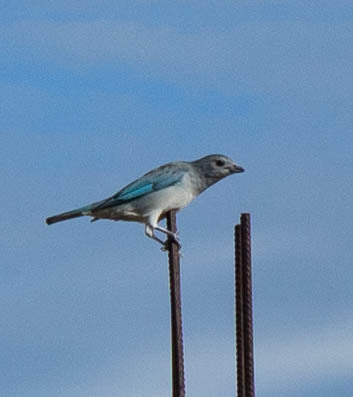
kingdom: Animalia
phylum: Chordata
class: Aves
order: Passeriformes
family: Thraupidae
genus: Thraupis
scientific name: Thraupis sayaca
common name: Sayaca tanager
